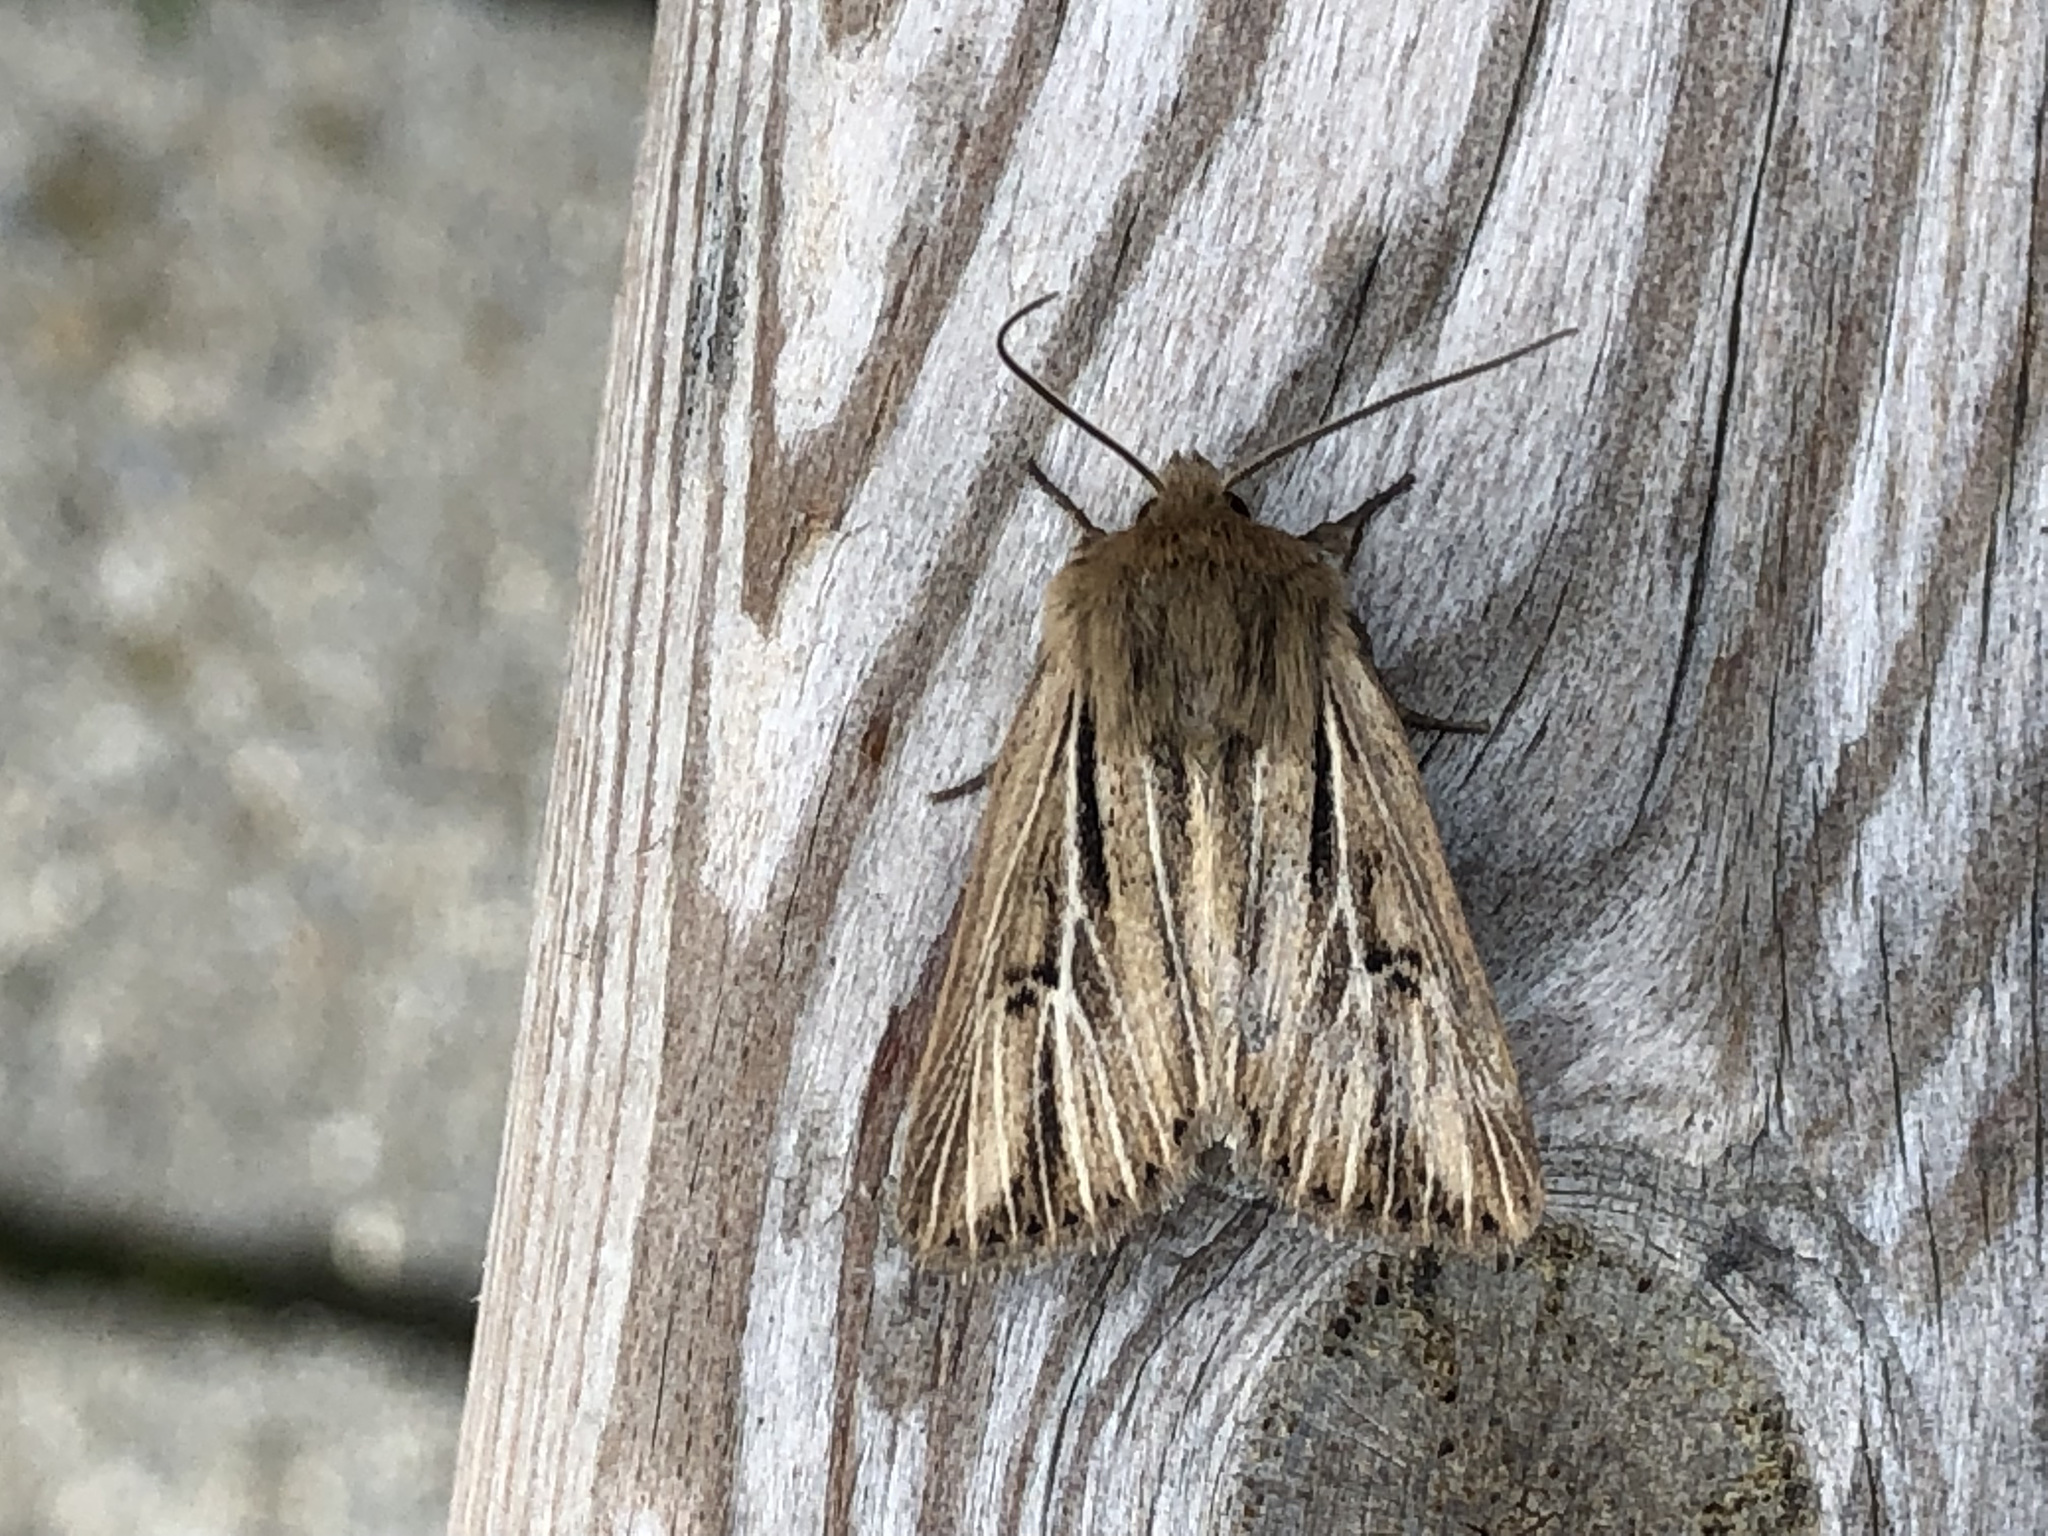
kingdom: Animalia
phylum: Arthropoda
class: Insecta
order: Lepidoptera
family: Noctuidae
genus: Mythimna
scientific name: Mythimna anderreggii
